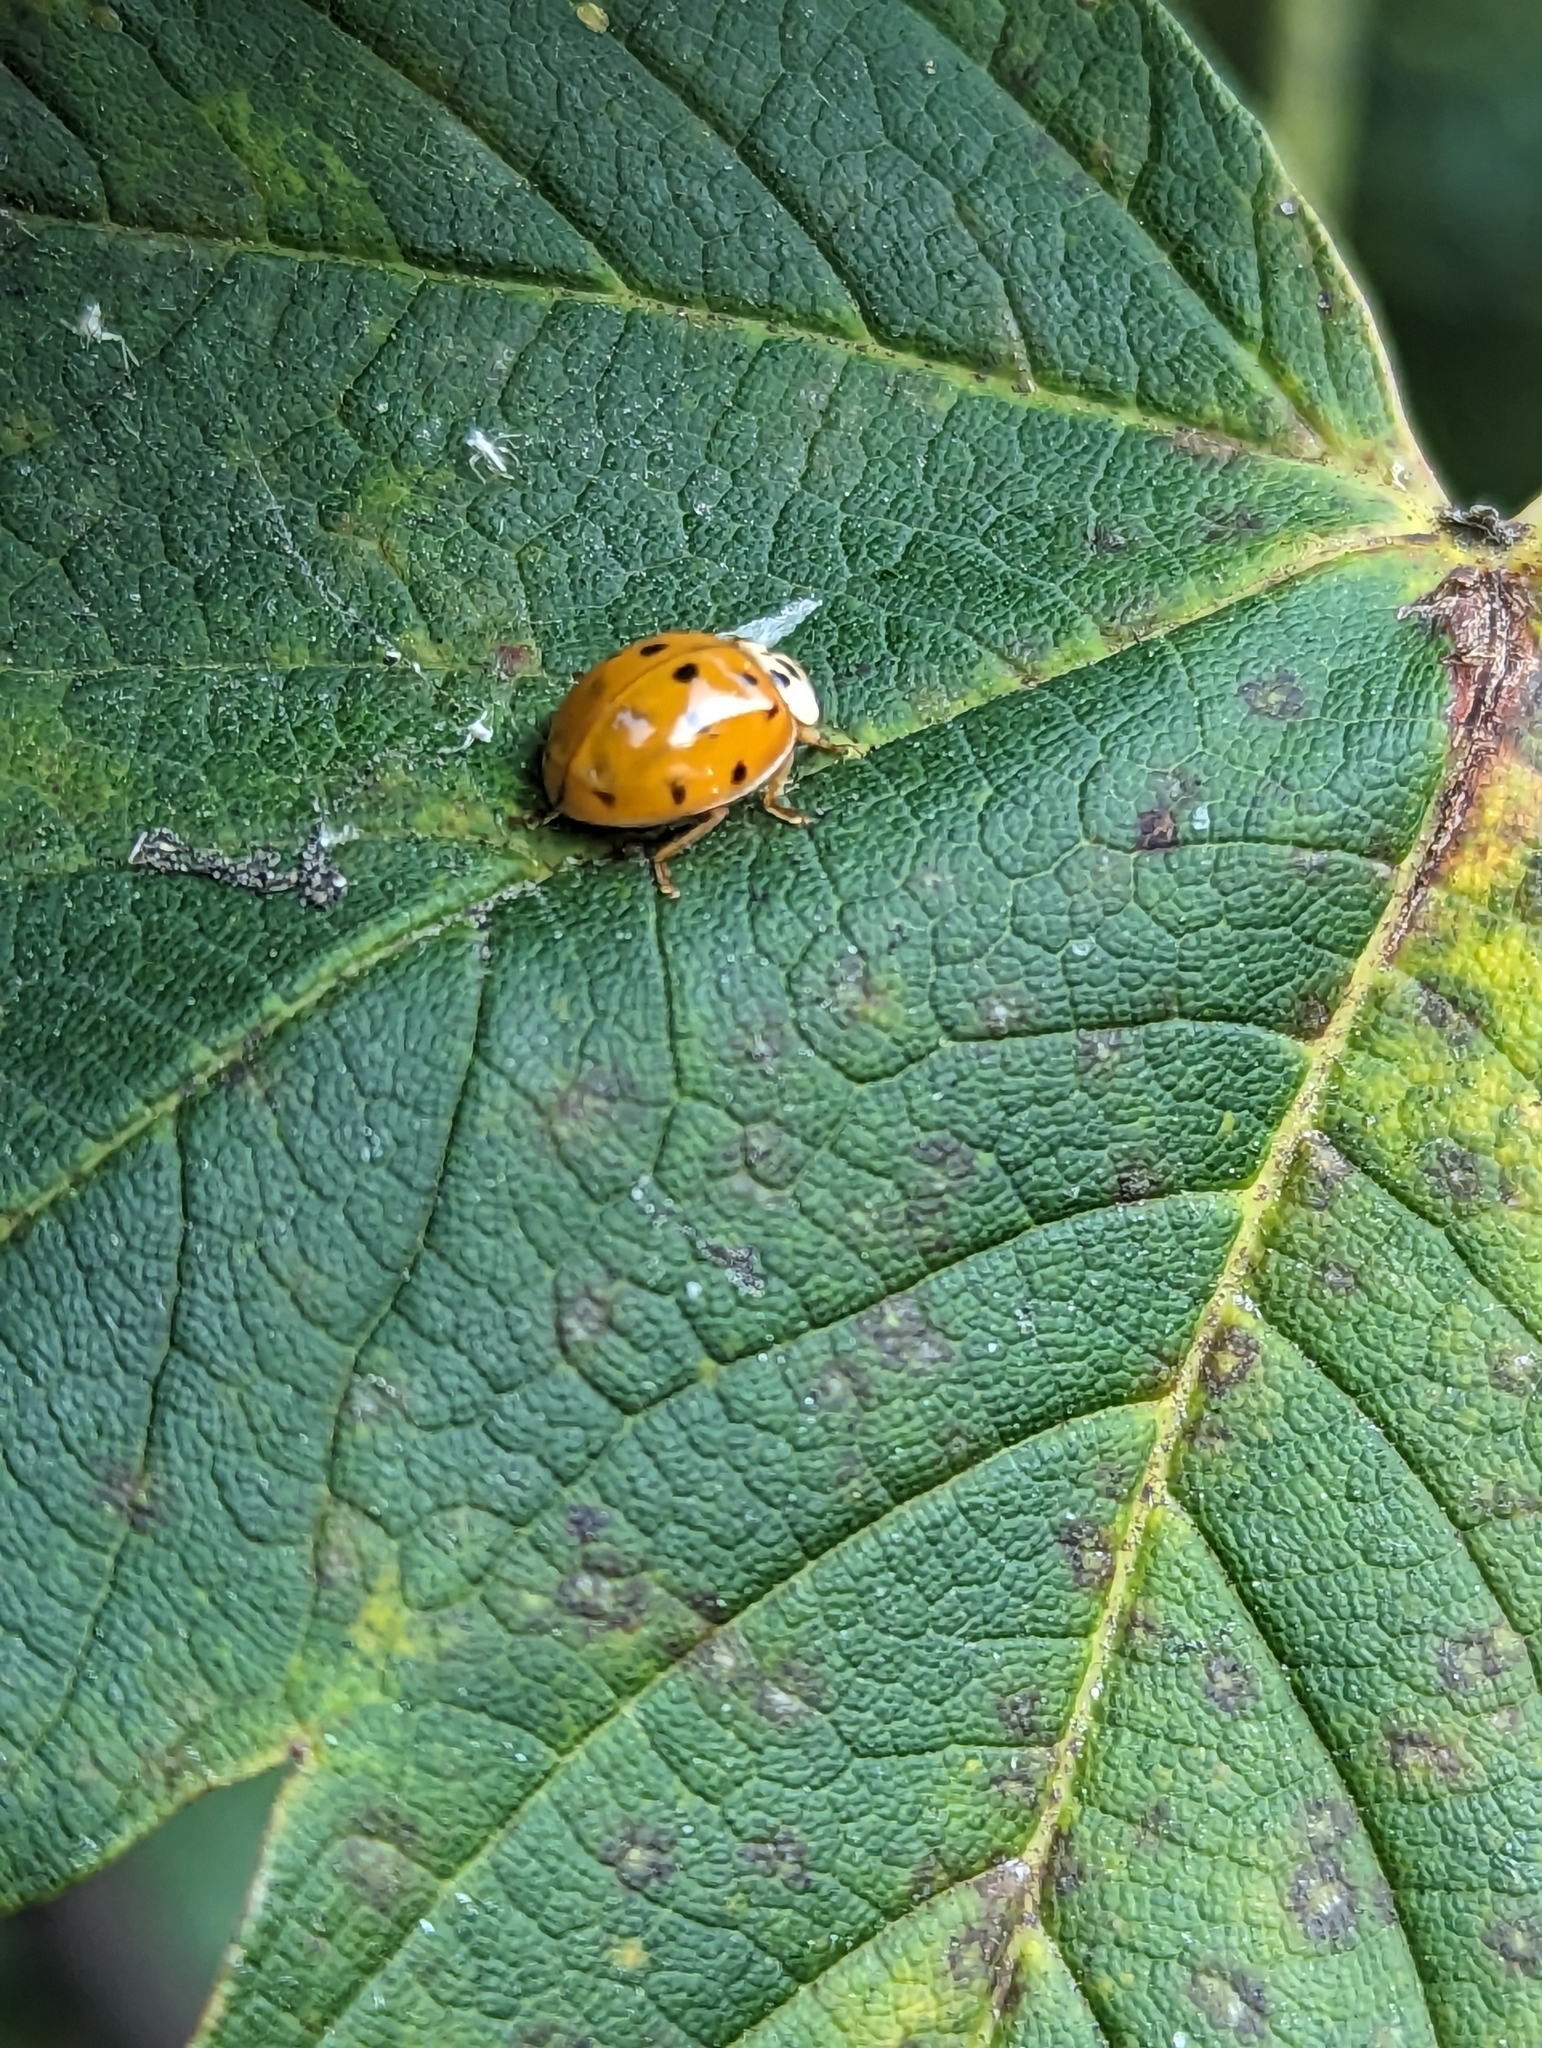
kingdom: Animalia
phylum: Arthropoda
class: Insecta
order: Coleoptera
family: Coccinellidae
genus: Harmonia
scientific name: Harmonia axyridis
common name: Harlequin ladybird
